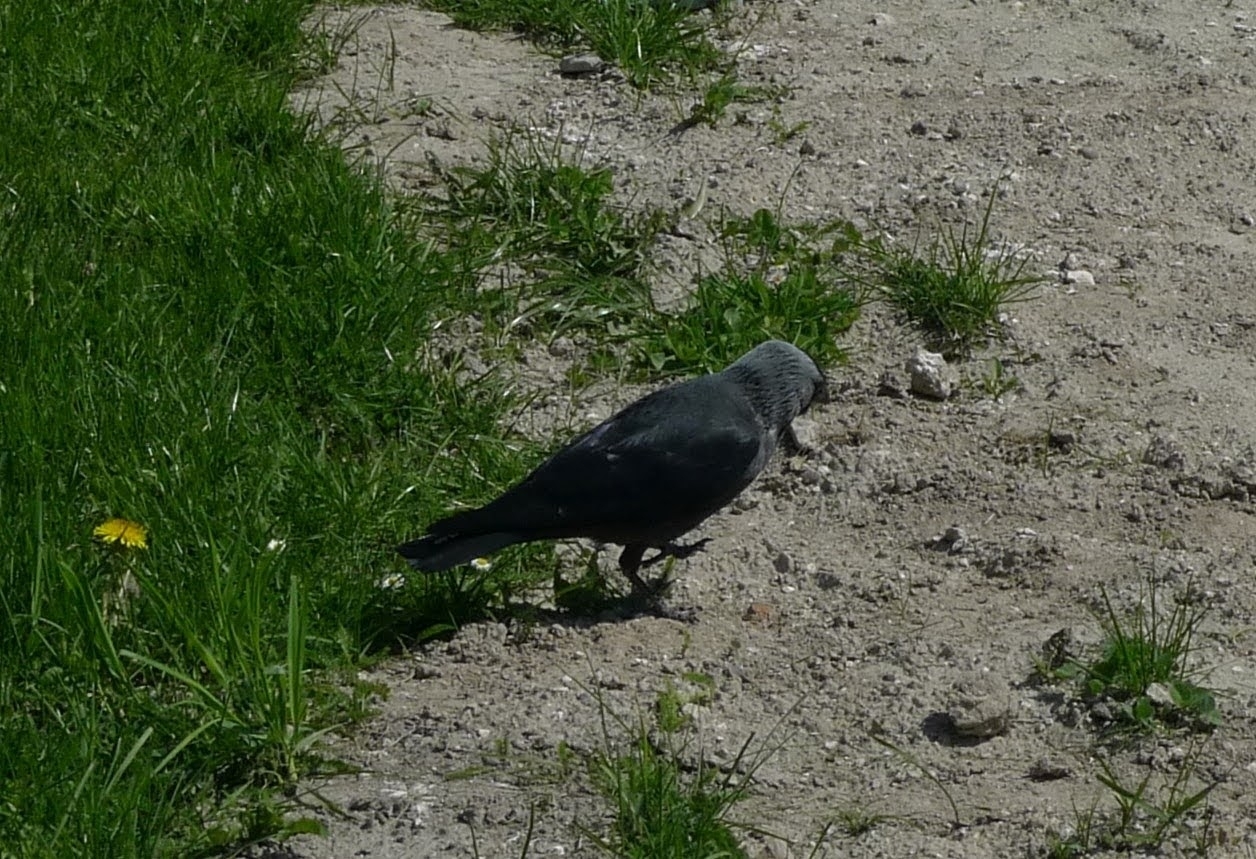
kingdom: Animalia
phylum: Chordata
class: Aves
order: Passeriformes
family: Corvidae
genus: Coloeus
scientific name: Coloeus monedula
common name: Western jackdaw
